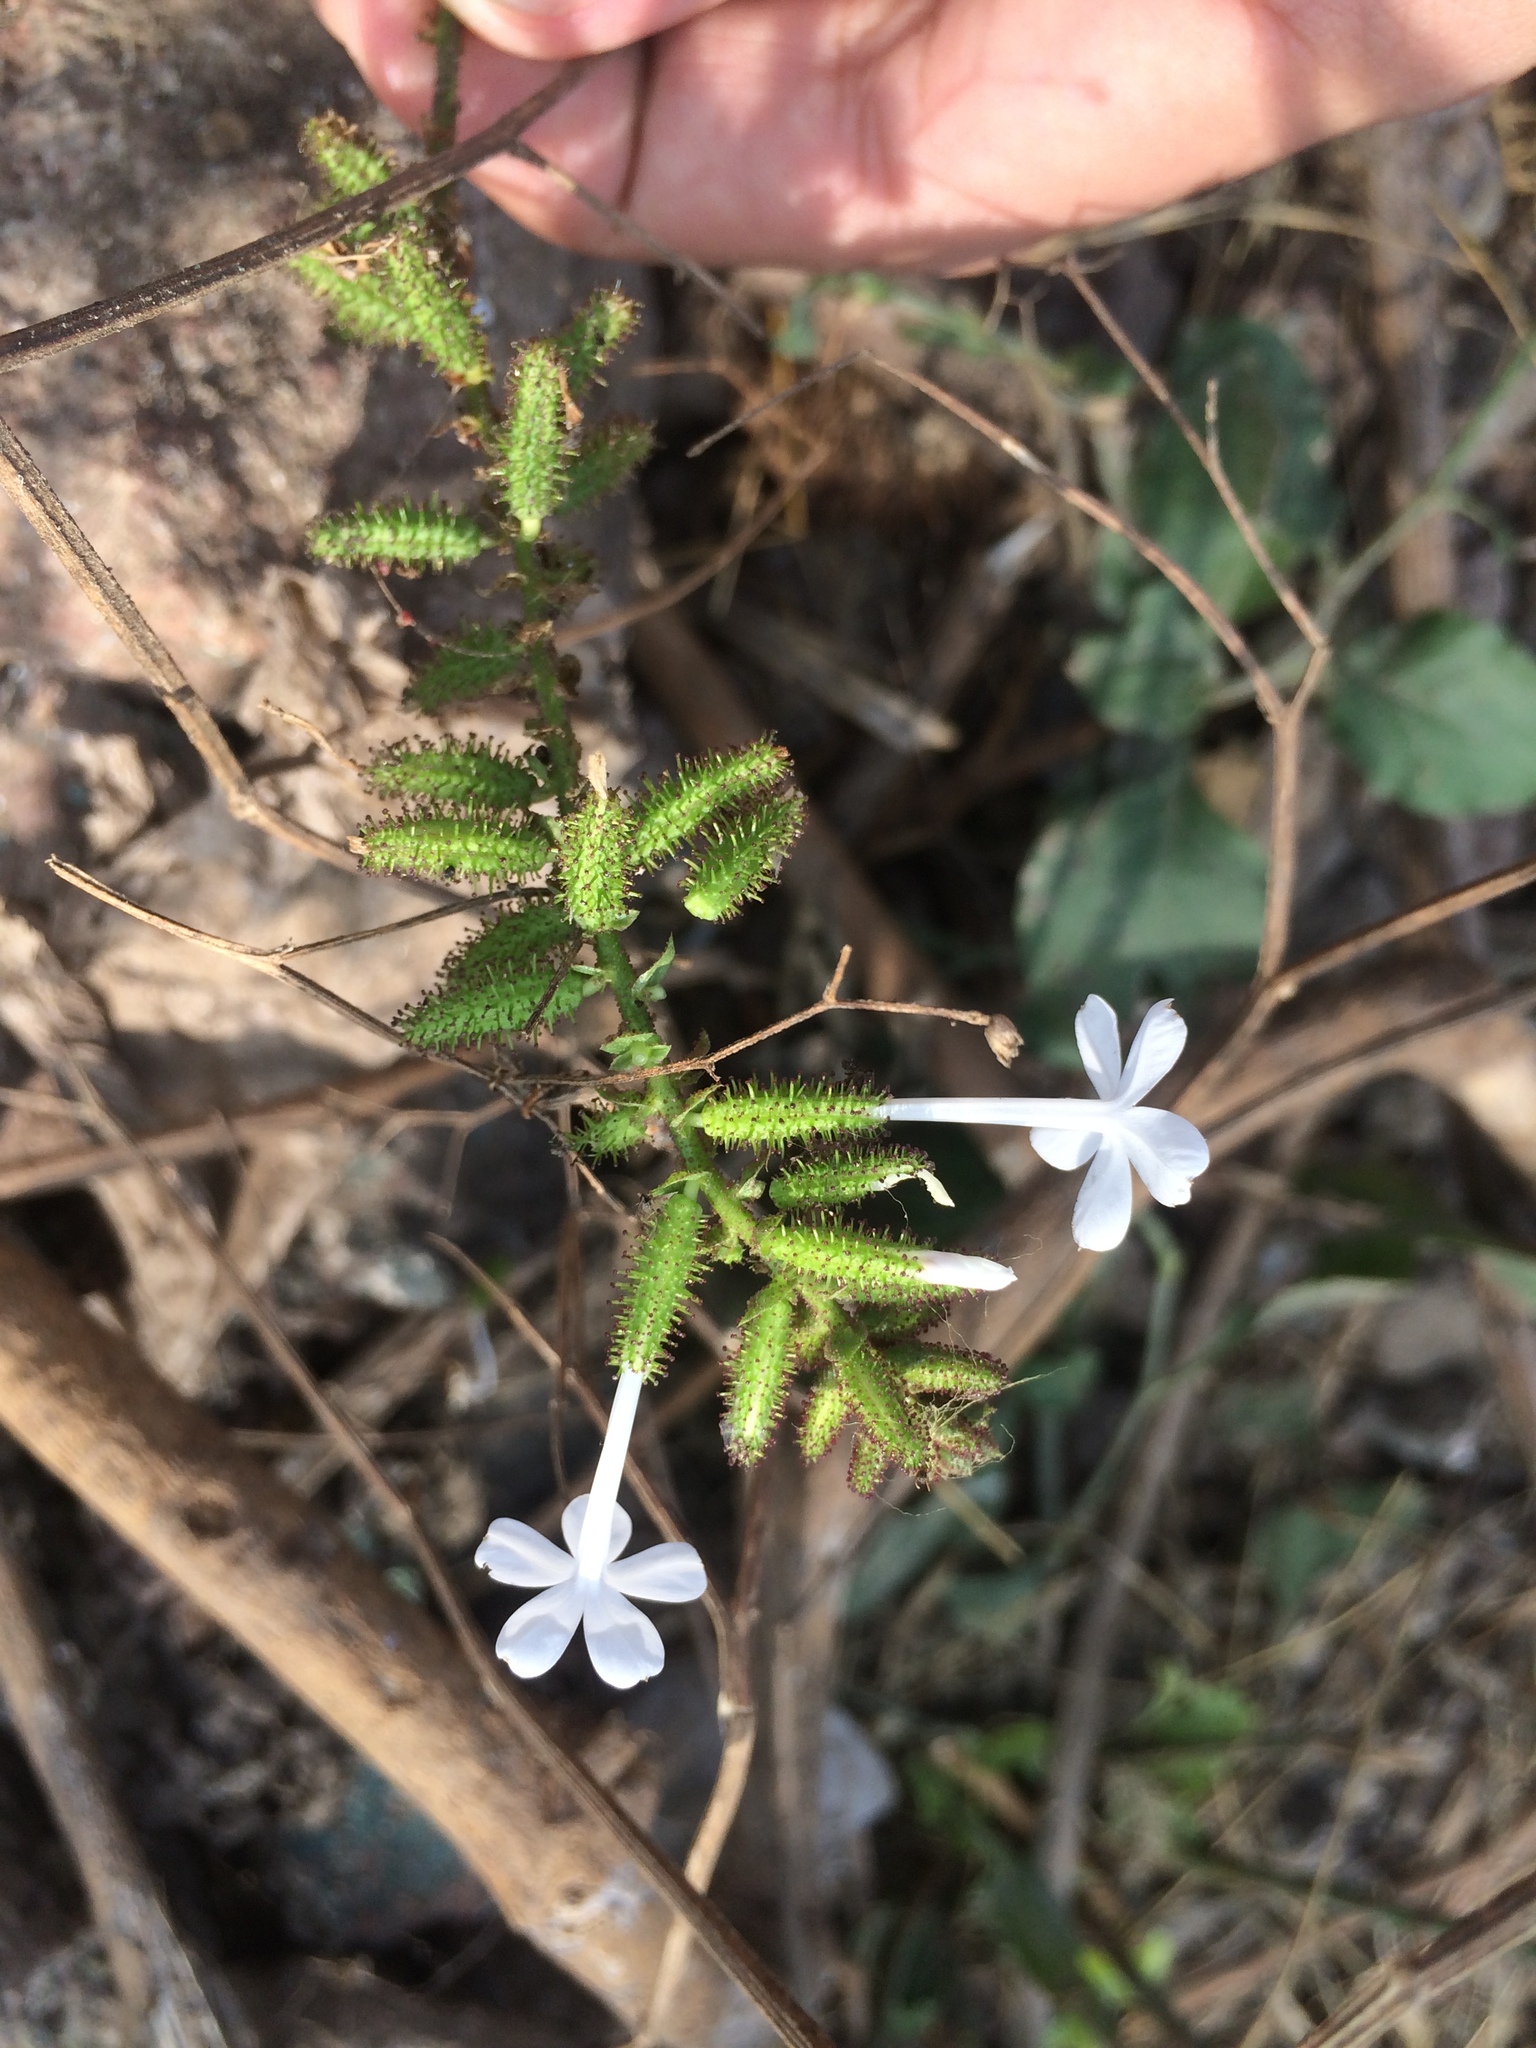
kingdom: Plantae
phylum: Tracheophyta
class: Magnoliopsida
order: Caryophyllales
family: Plumbaginaceae
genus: Plumbago
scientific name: Plumbago zeylanica
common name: Doctorbush
